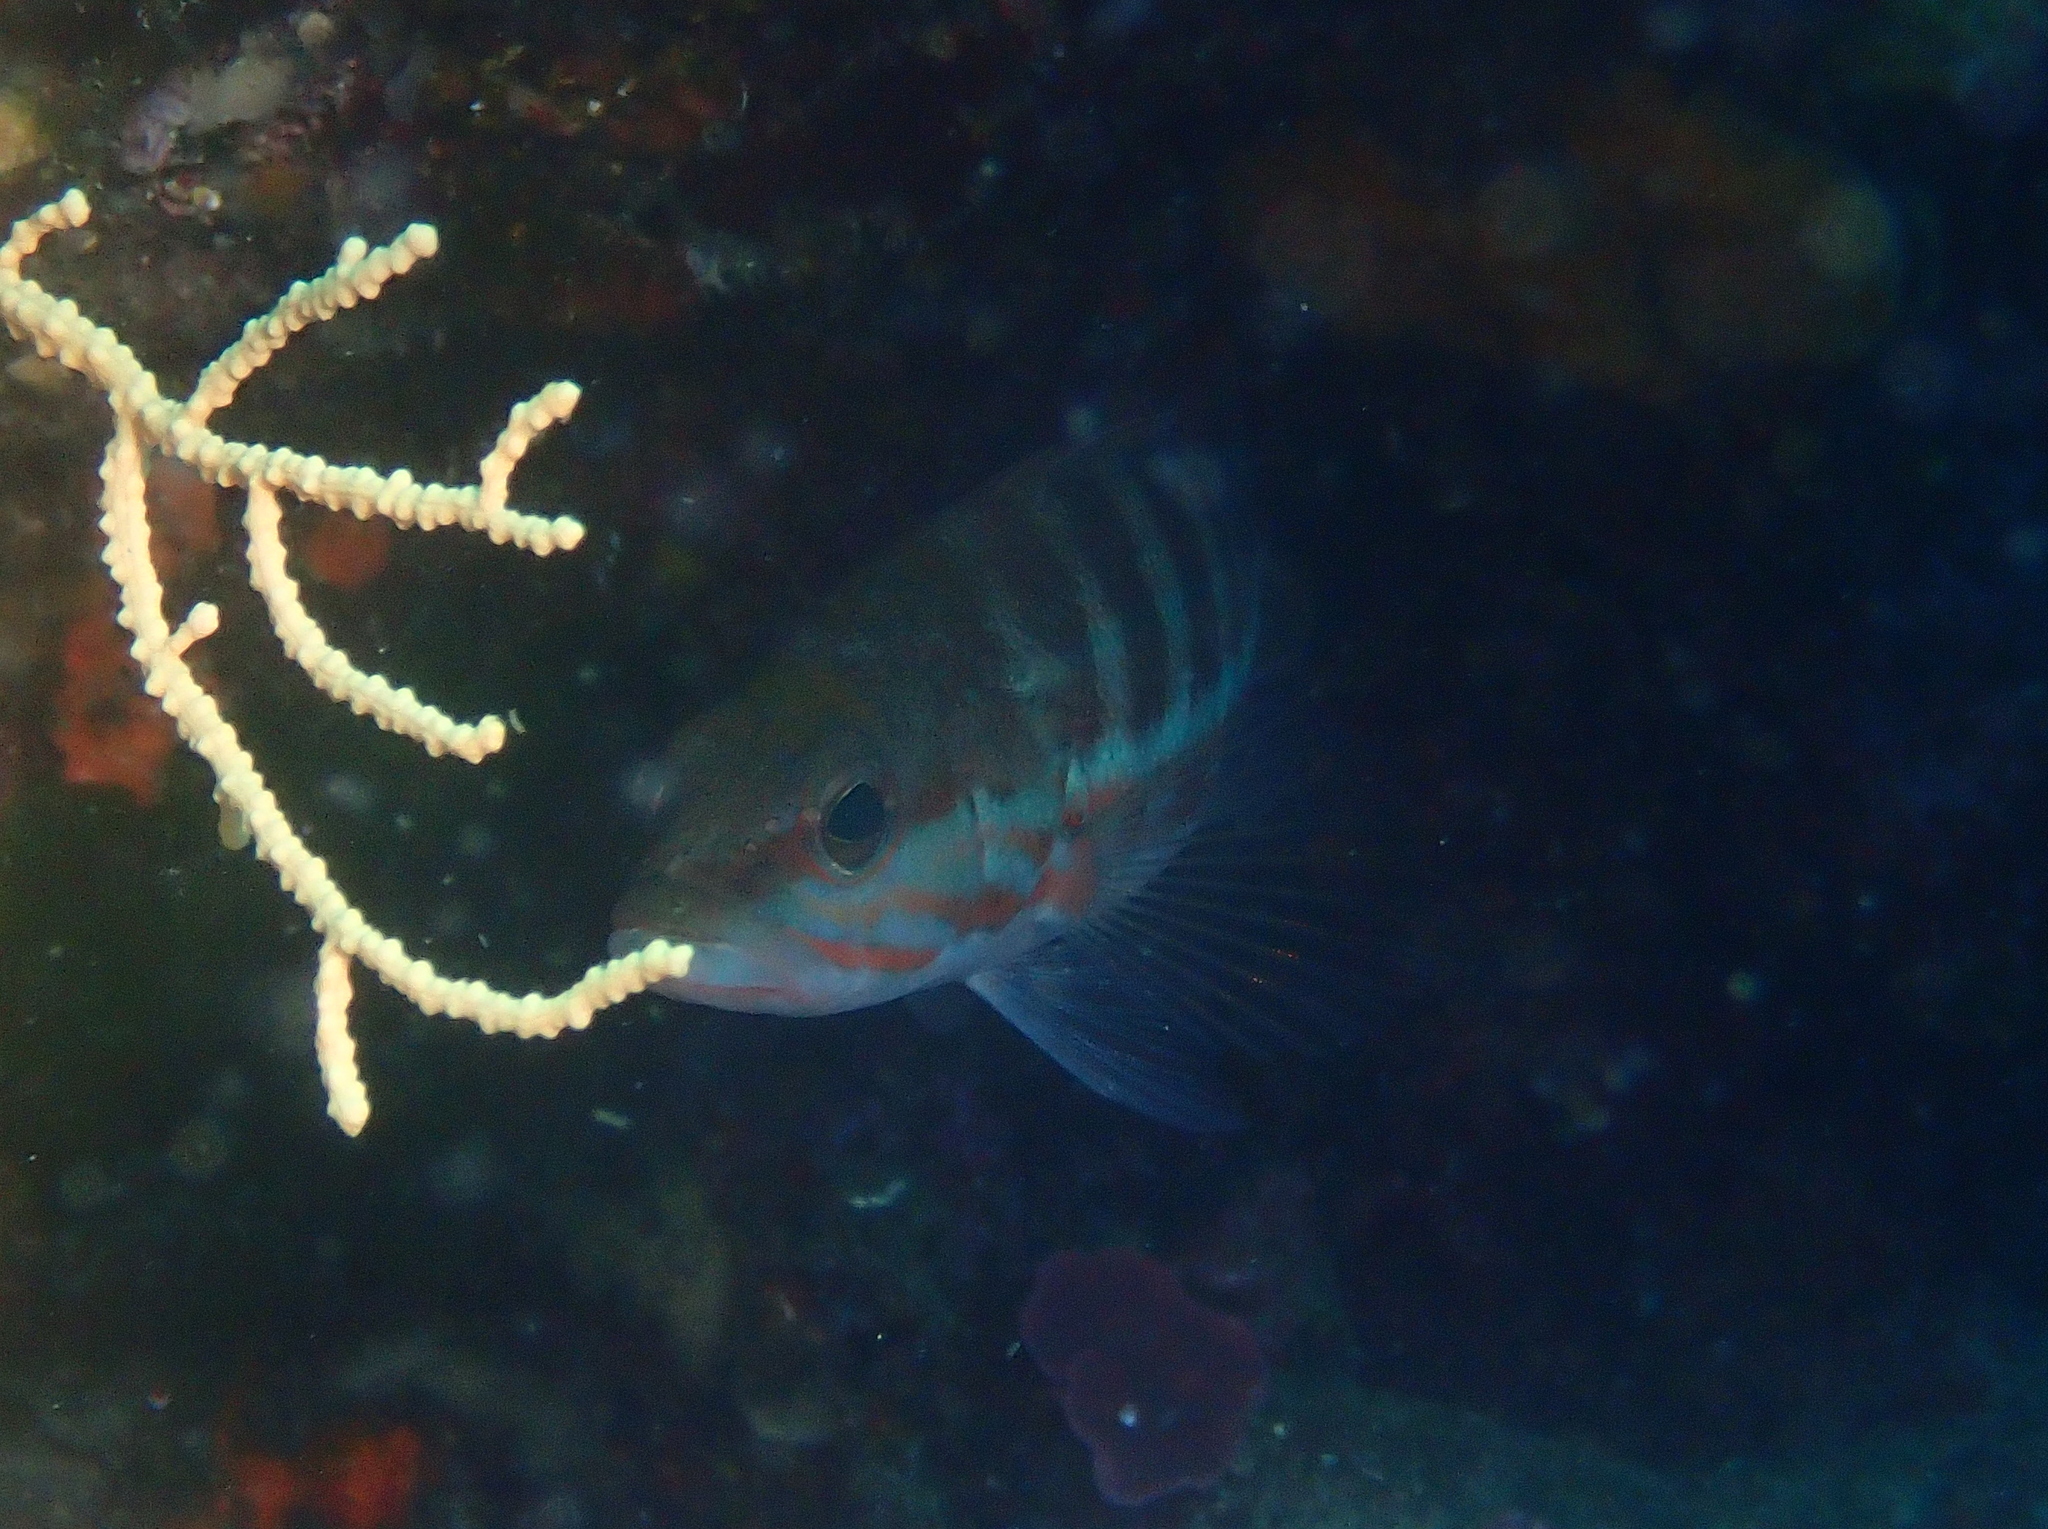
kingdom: Animalia
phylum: Chordata
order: Perciformes
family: Serranidae
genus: Serranus
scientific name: Serranus cabrilla
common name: Comber
